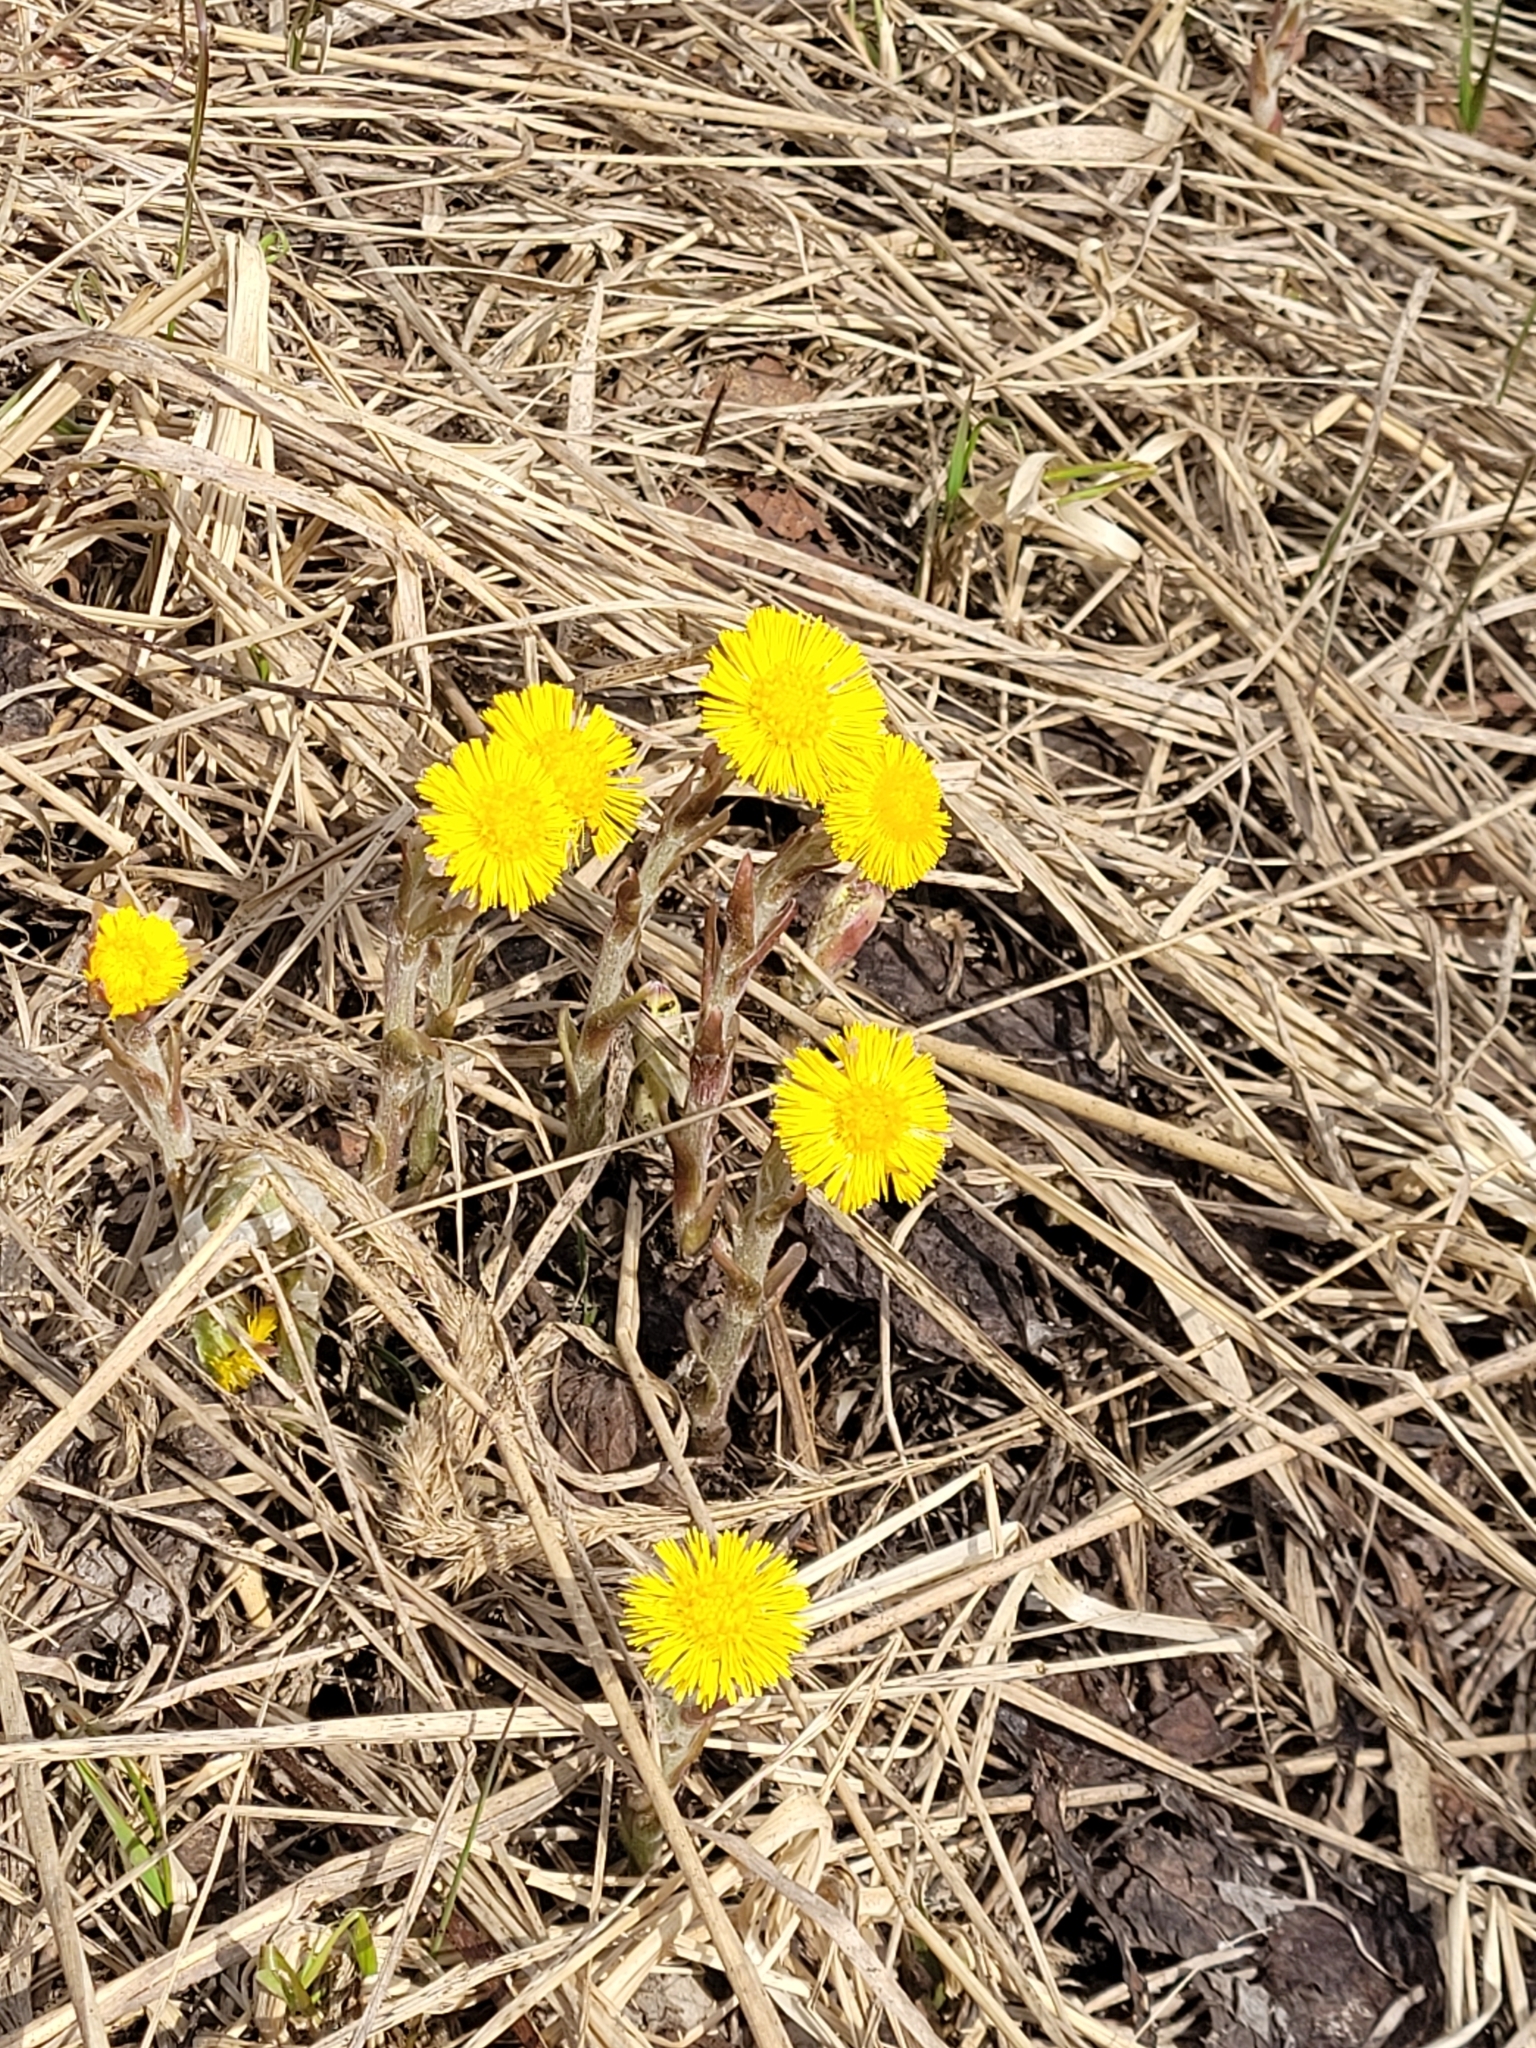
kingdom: Plantae
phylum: Tracheophyta
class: Magnoliopsida
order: Asterales
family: Asteraceae
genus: Tussilago
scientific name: Tussilago farfara
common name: Coltsfoot
